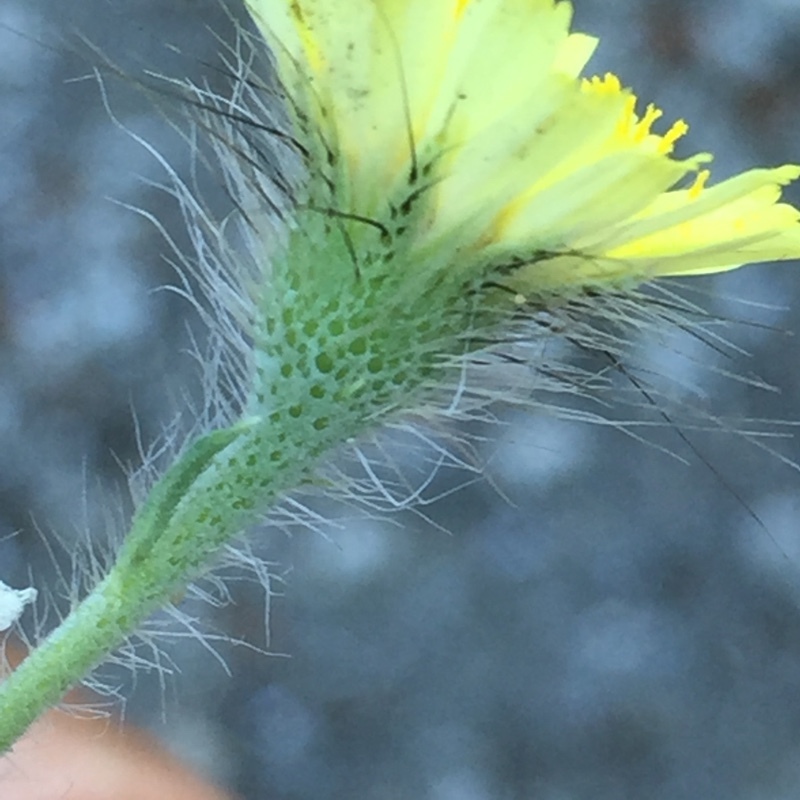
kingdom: Plantae
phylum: Tracheophyta
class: Magnoliopsida
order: Asterales
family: Asteraceae
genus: Hispidella
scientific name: Hispidella hispanica
